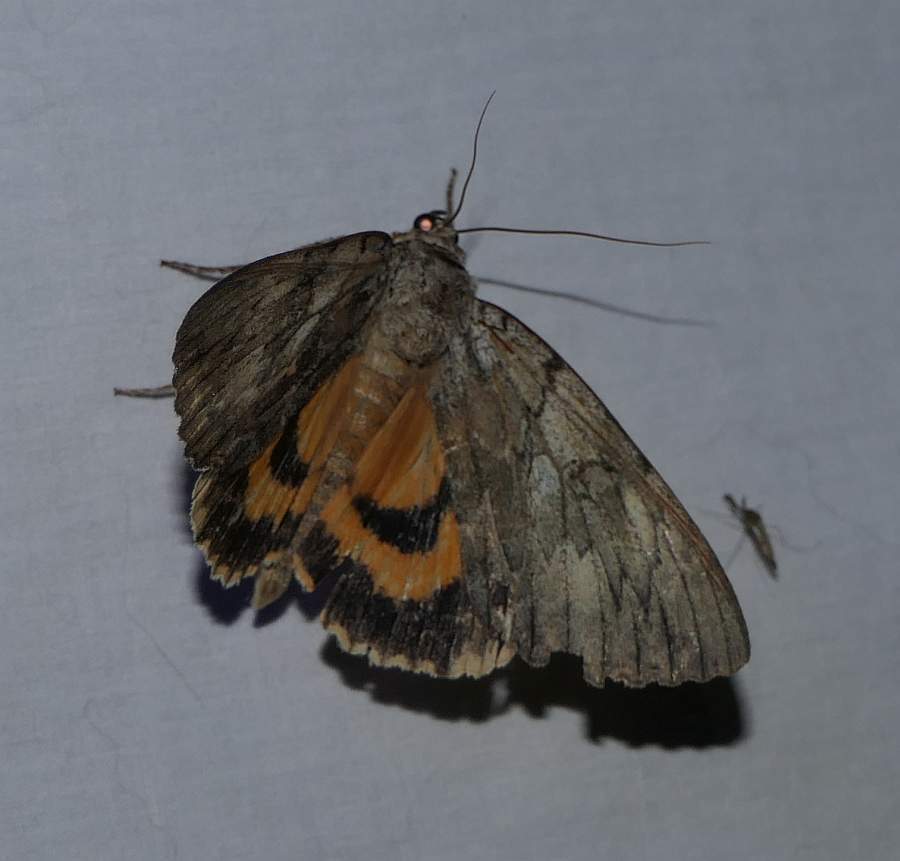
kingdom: Animalia
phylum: Arthropoda
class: Insecta
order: Lepidoptera
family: Erebidae
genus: Catocala
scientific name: Catocala subnata
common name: Youthful underwing
